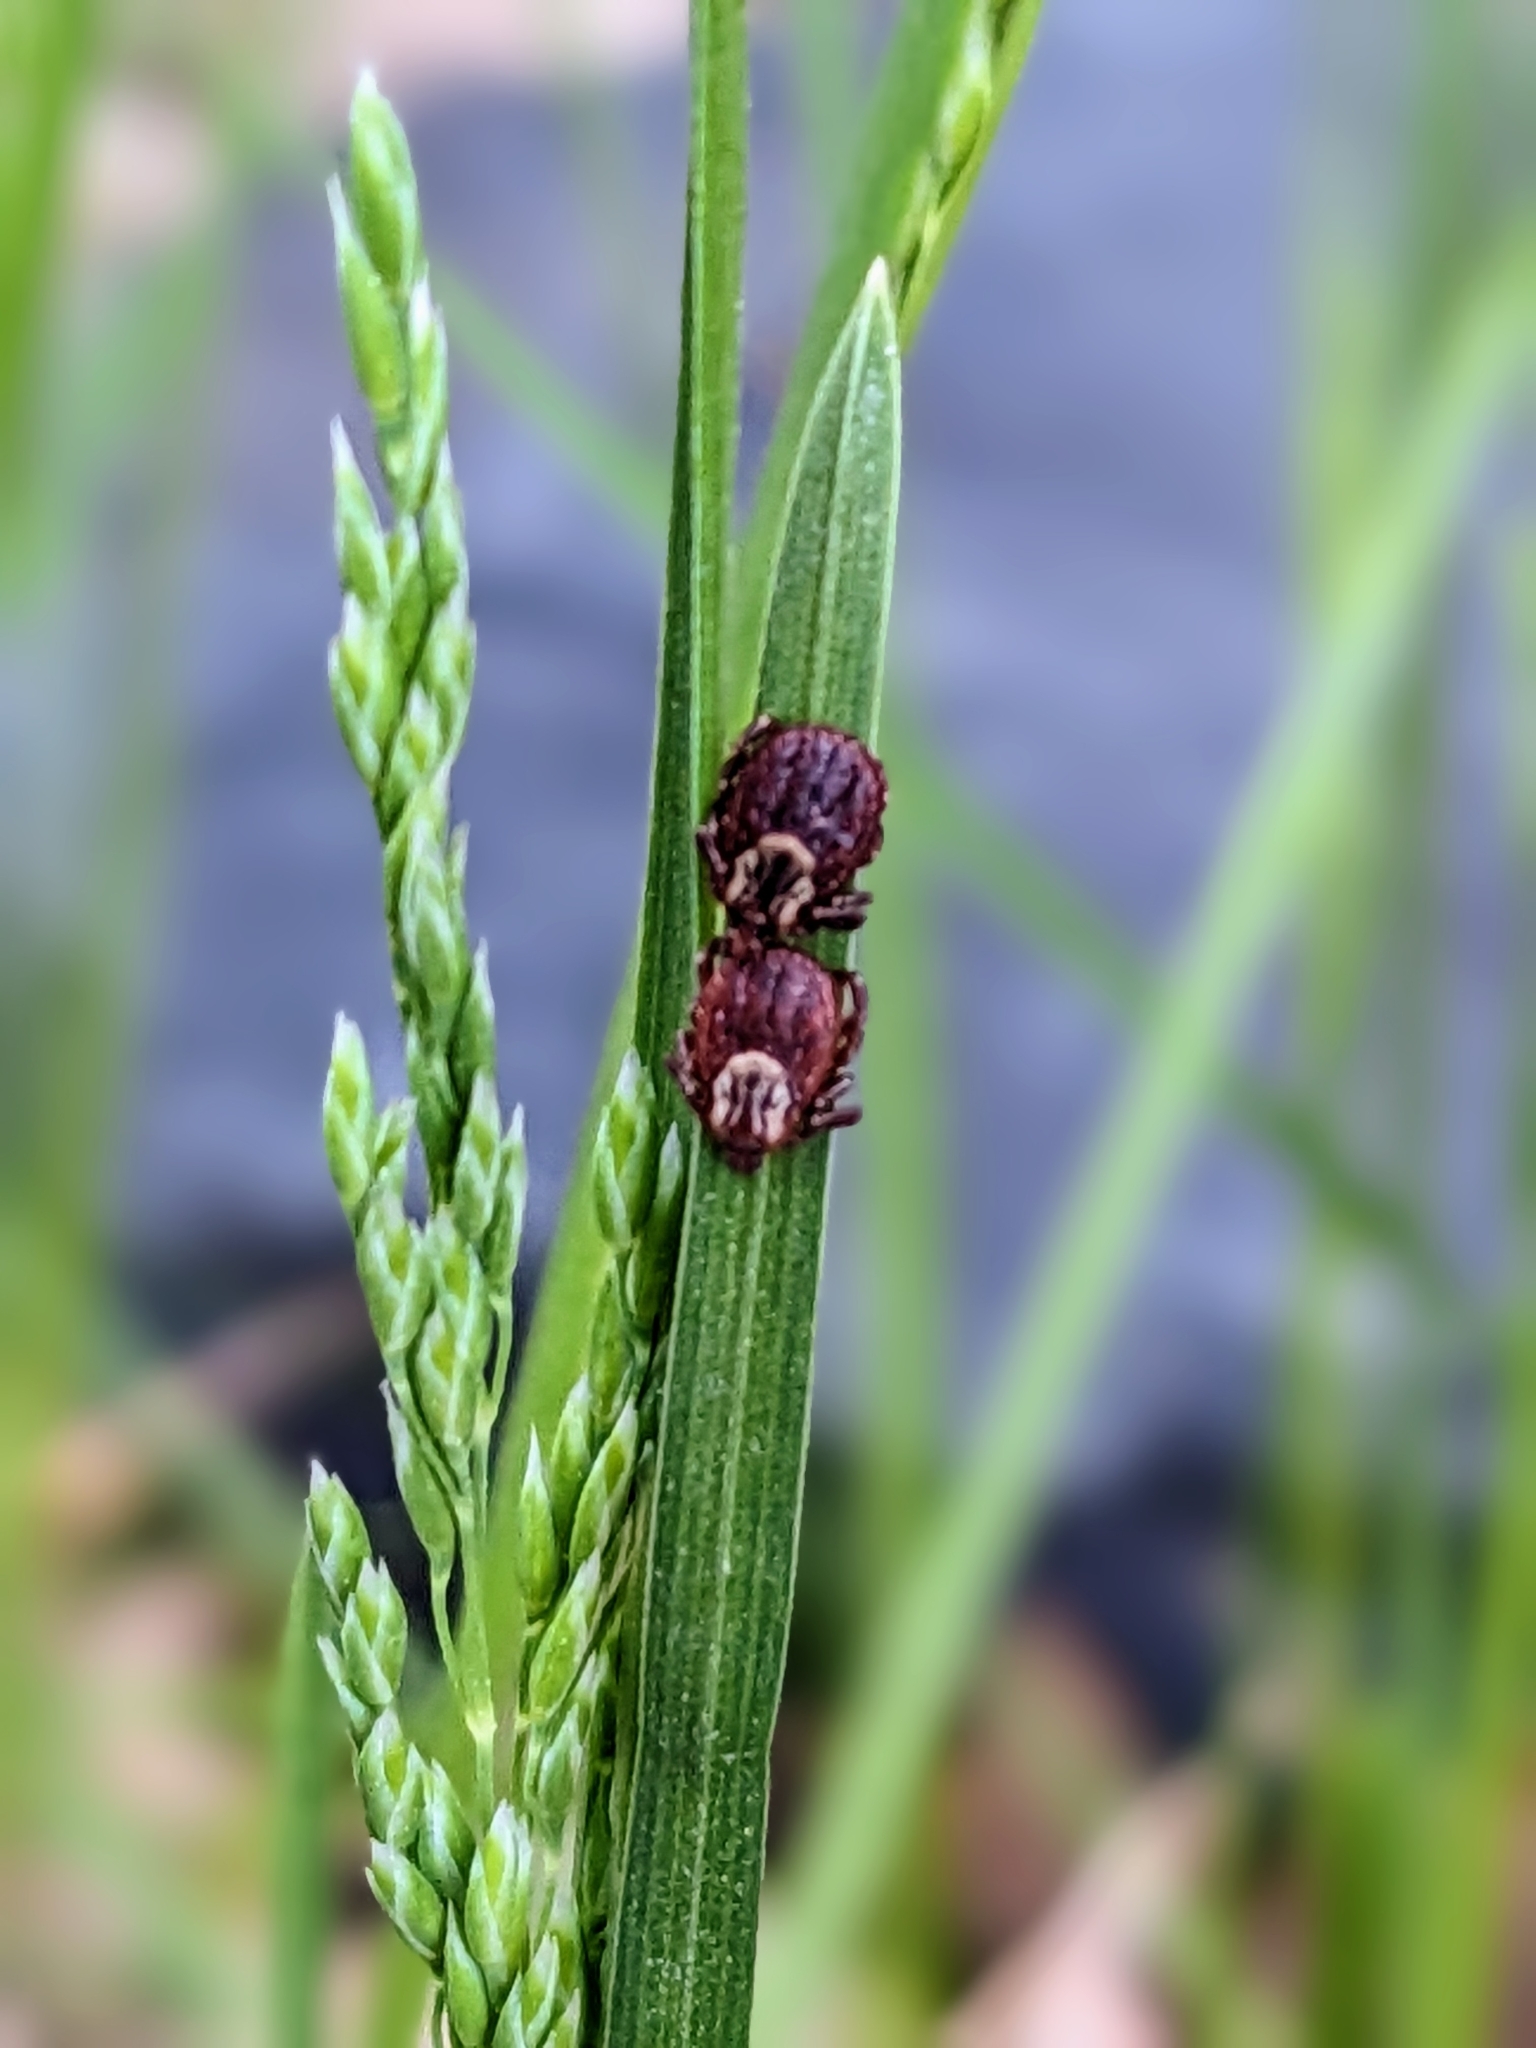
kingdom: Animalia
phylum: Arthropoda
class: Arachnida
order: Ixodida
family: Ixodidae
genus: Dermacentor
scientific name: Dermacentor variabilis
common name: American dog tick
